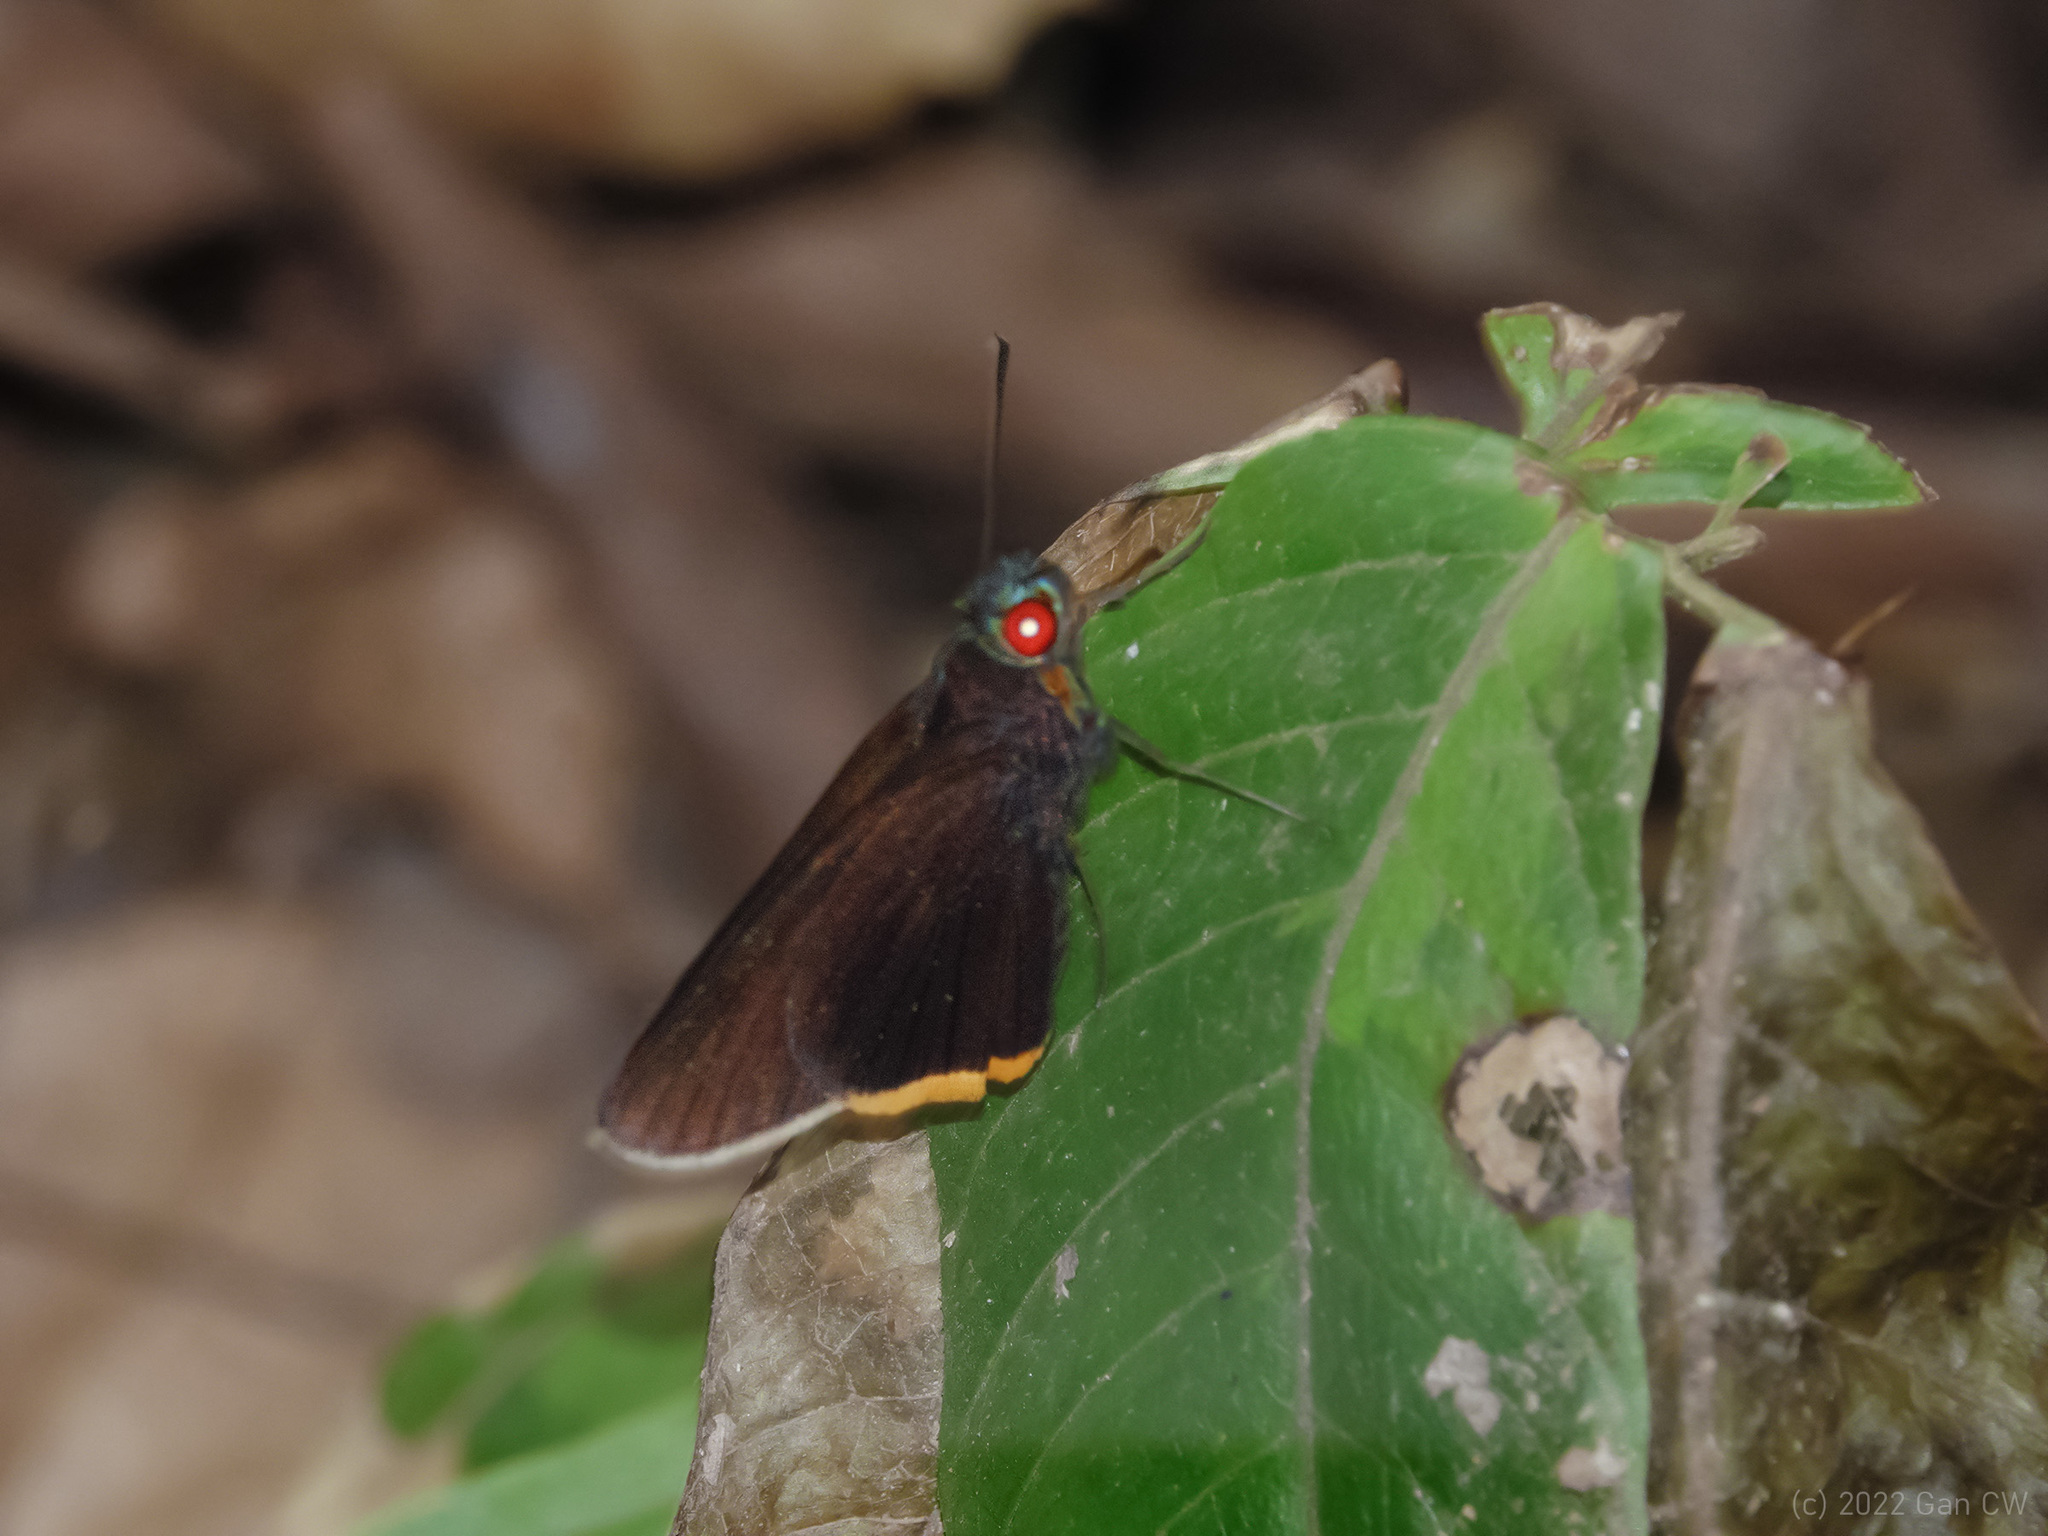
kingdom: Animalia
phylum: Arthropoda
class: Insecta
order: Lepidoptera
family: Hesperiidae
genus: Matapa
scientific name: Matapa sasivarna
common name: Black-veined redeye
